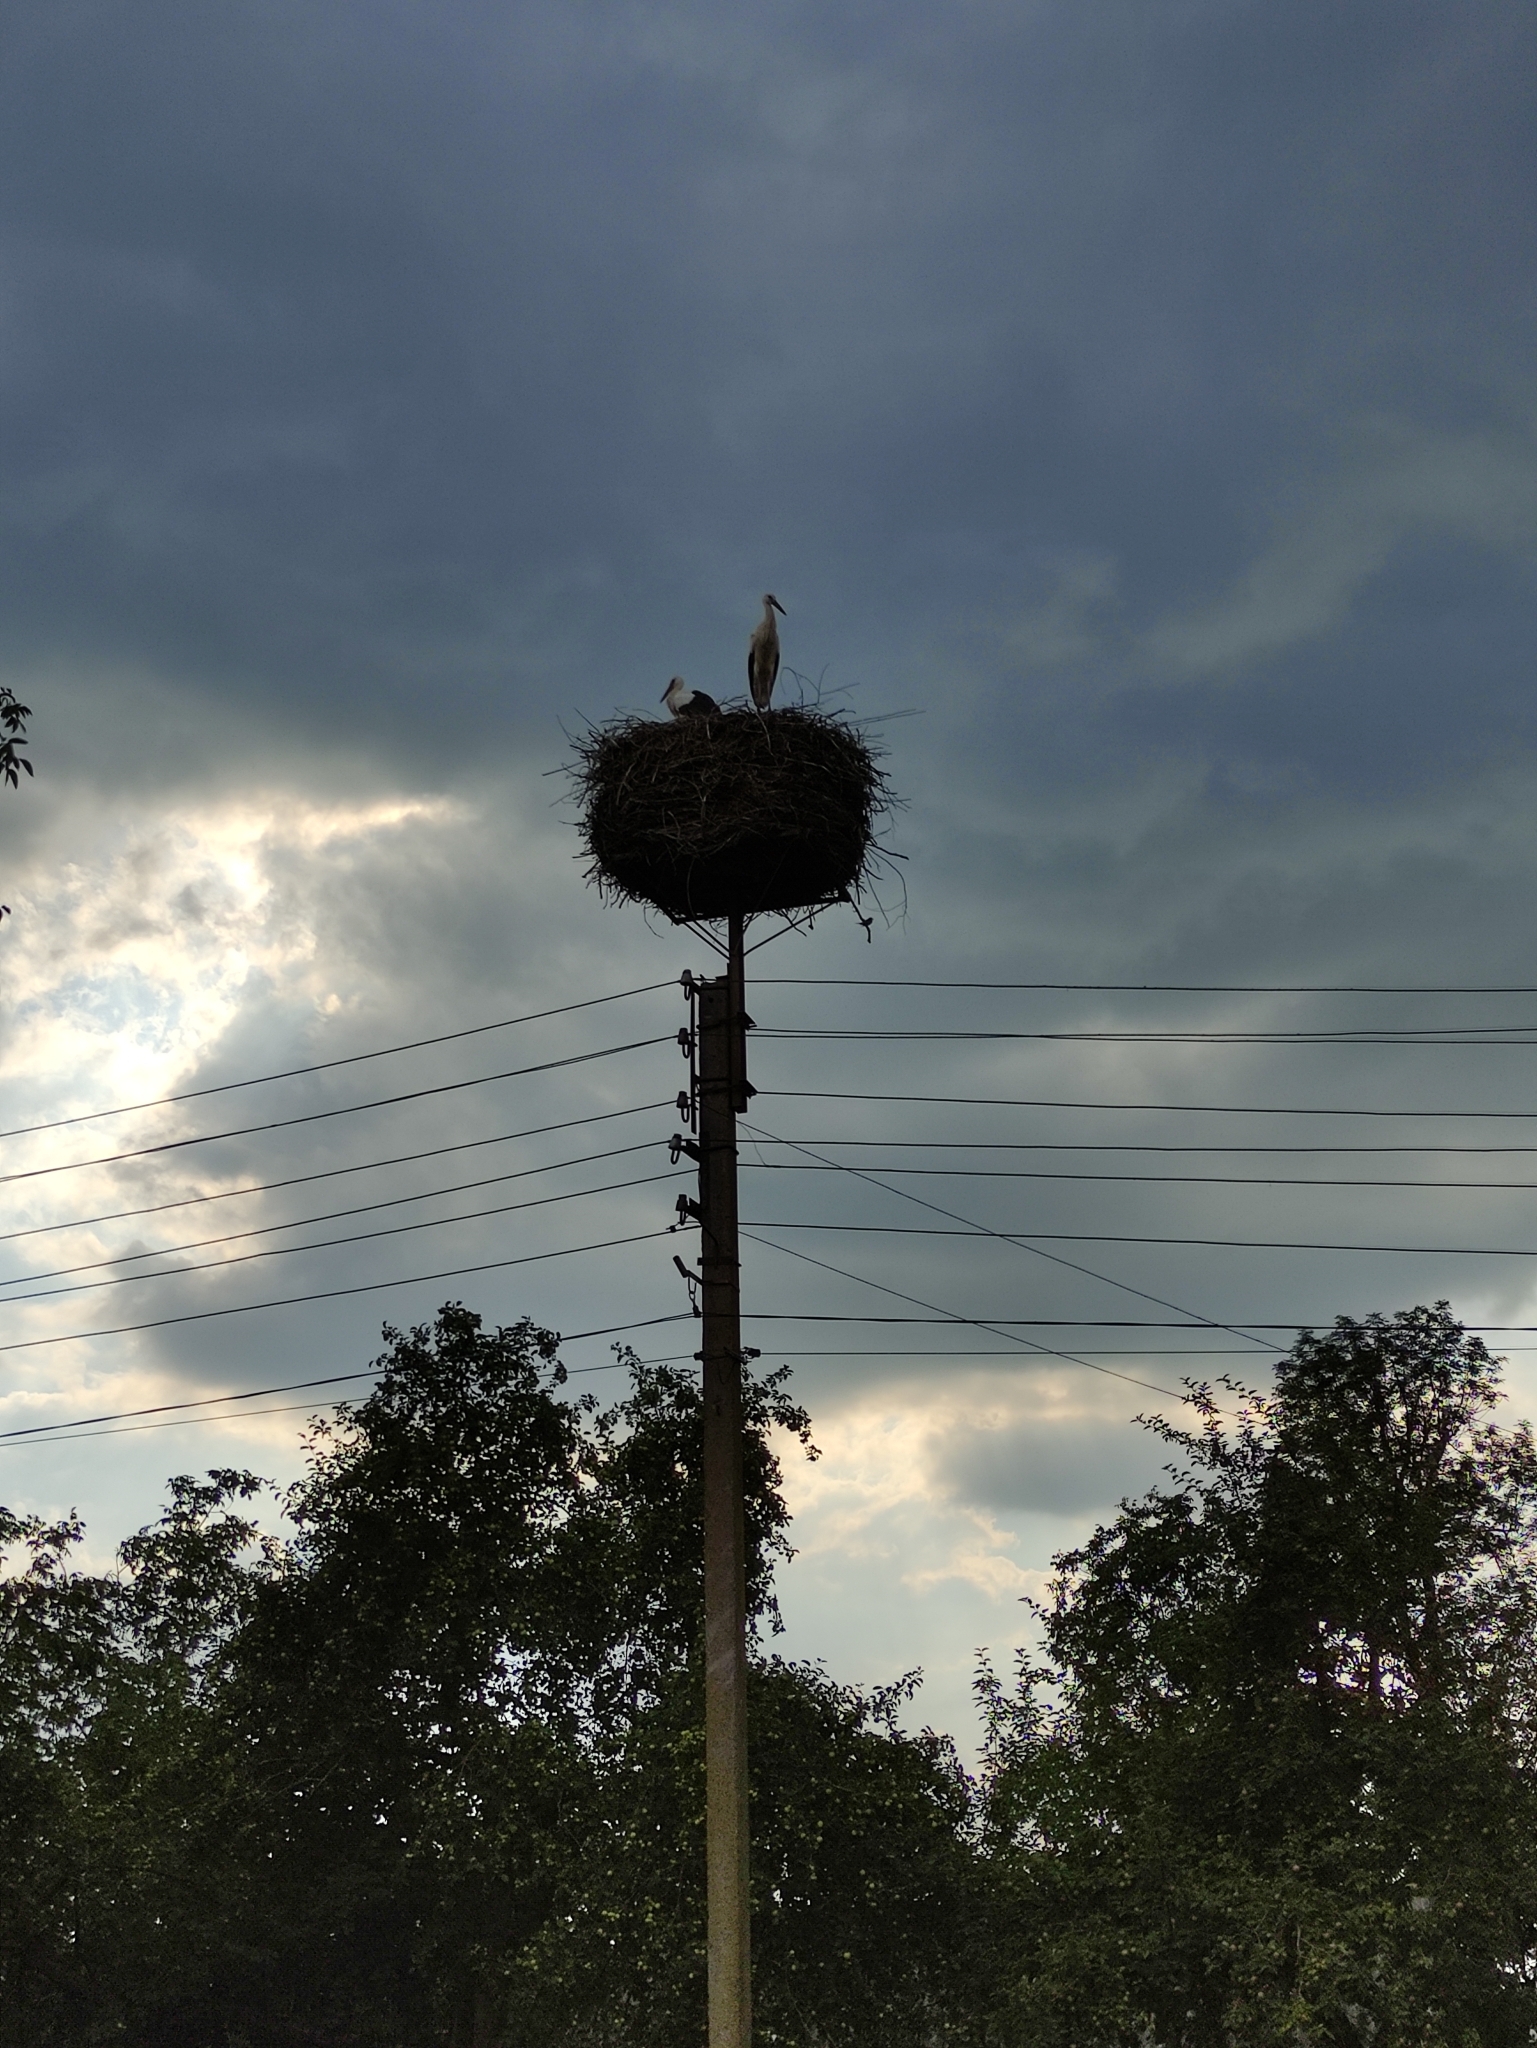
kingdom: Animalia
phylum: Chordata
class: Aves
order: Ciconiiformes
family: Ciconiidae
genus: Ciconia
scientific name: Ciconia ciconia
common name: White stork
